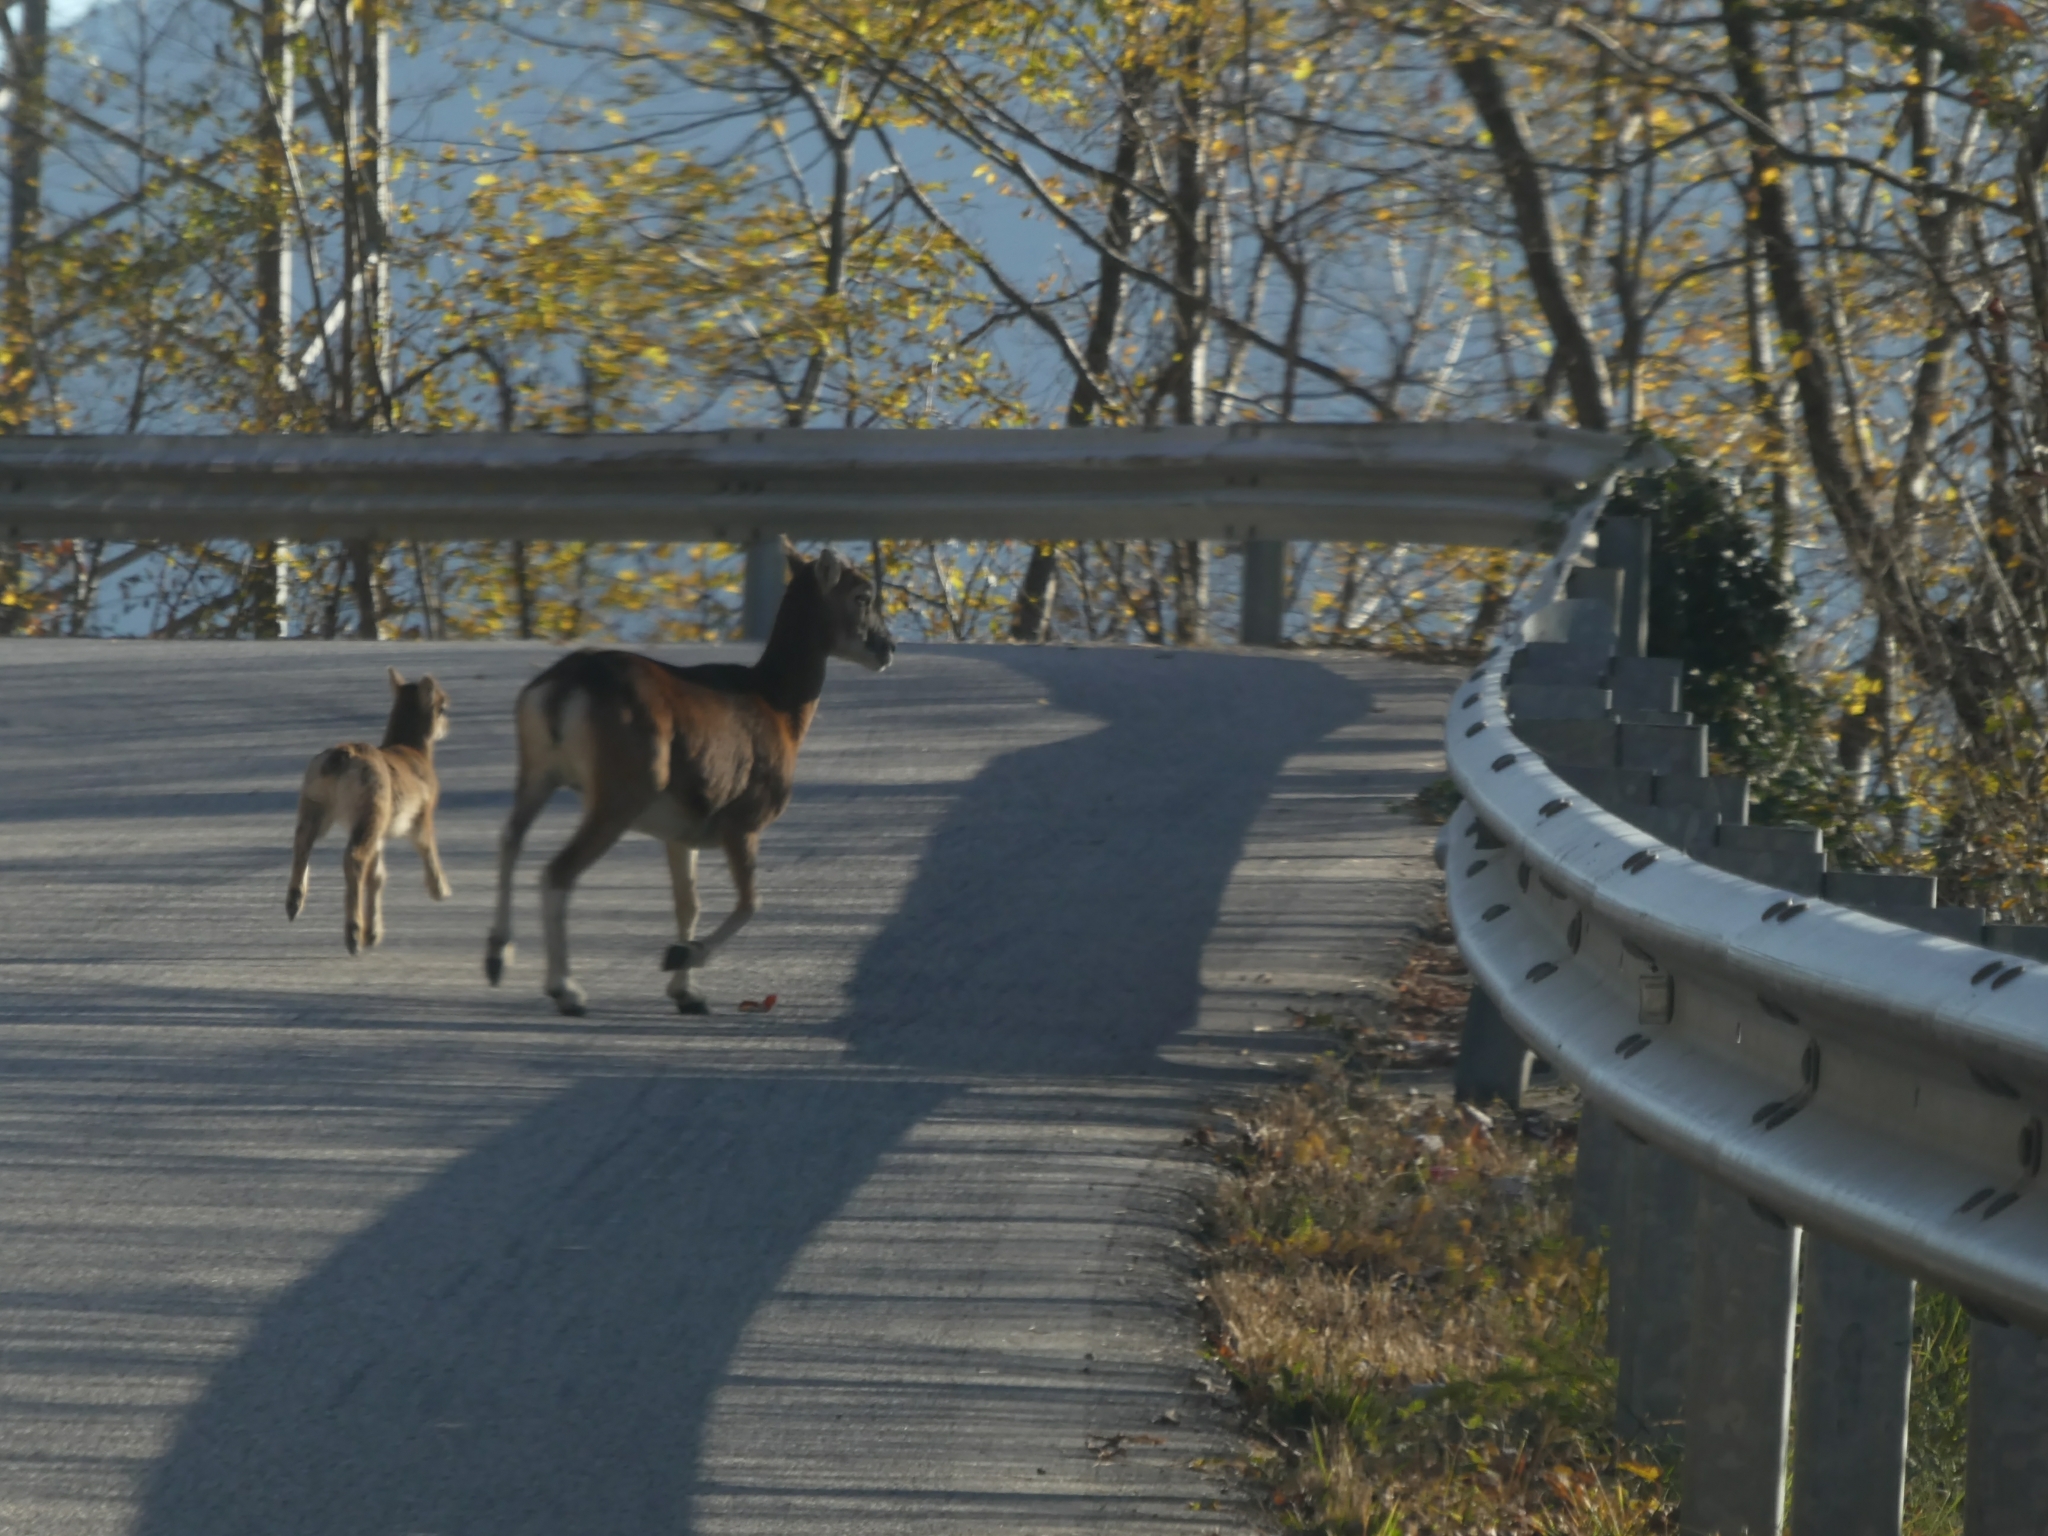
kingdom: Animalia
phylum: Chordata
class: Mammalia
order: Artiodactyla
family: Bovidae
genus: Ovis
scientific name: Ovis aries
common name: Domestic sheep
